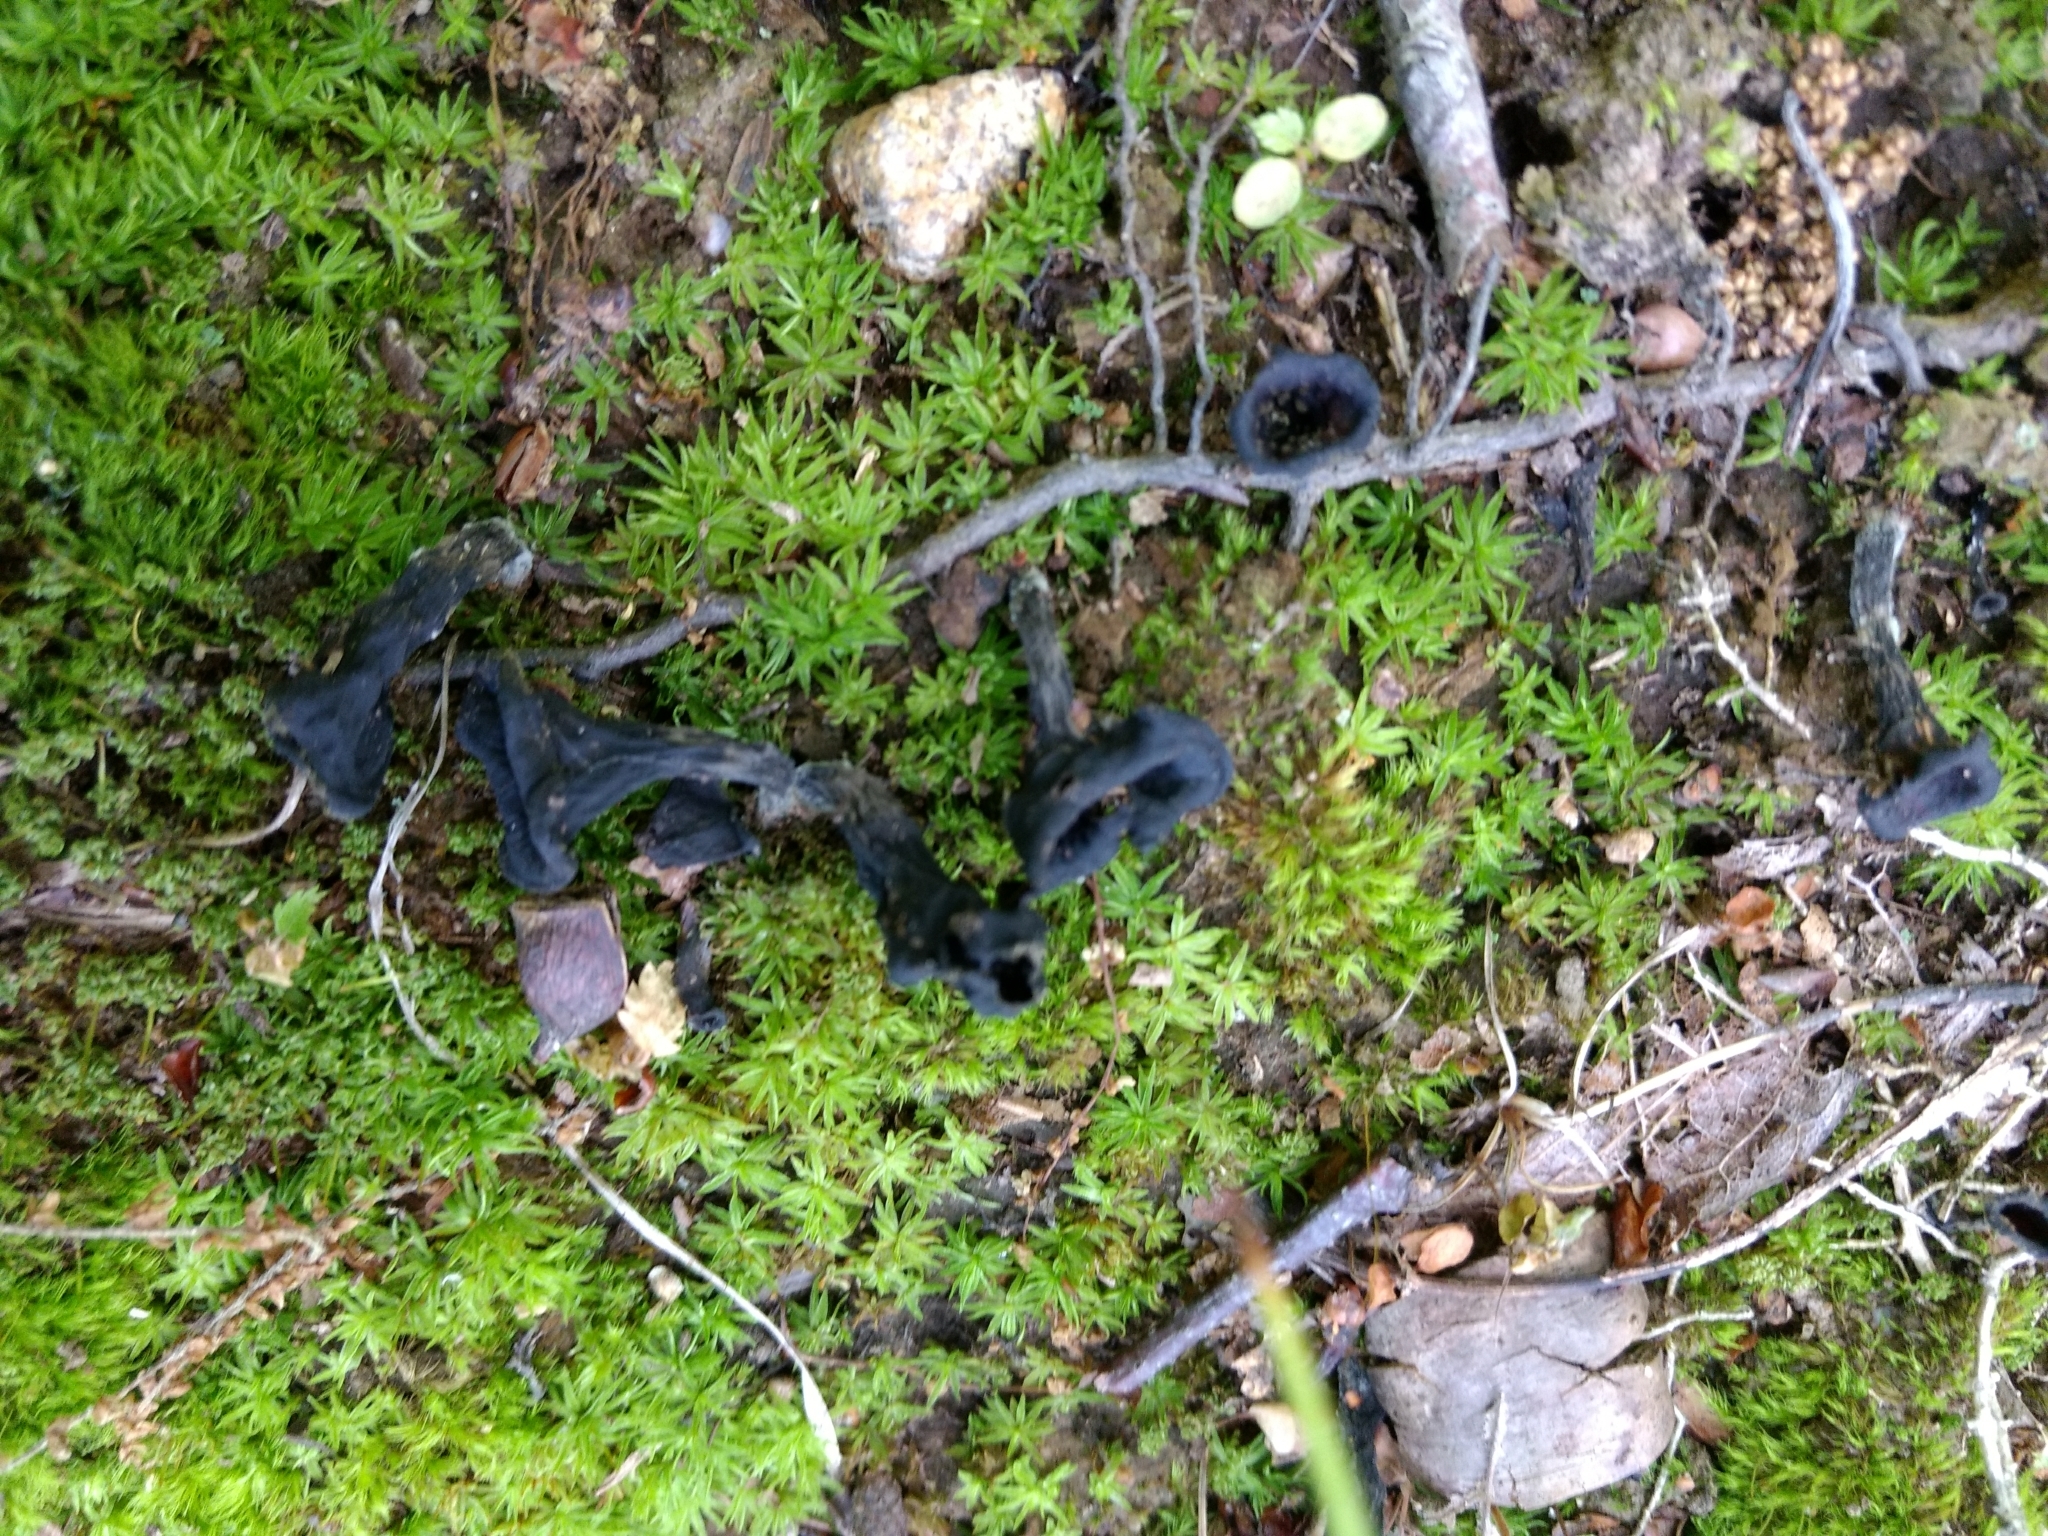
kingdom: Fungi
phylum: Basidiomycota
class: Agaricomycetes
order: Cantharellales
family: Hydnaceae
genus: Craterellus
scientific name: Craterellus cornucopioides
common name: Horn of plenty
